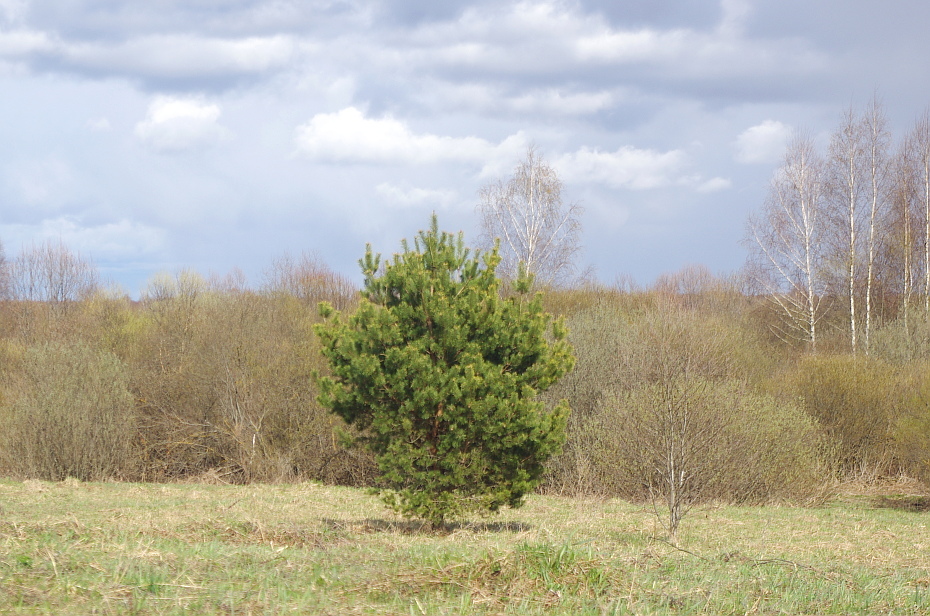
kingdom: Plantae
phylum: Tracheophyta
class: Pinopsida
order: Pinales
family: Pinaceae
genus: Pinus
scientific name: Pinus sylvestris
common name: Scots pine
